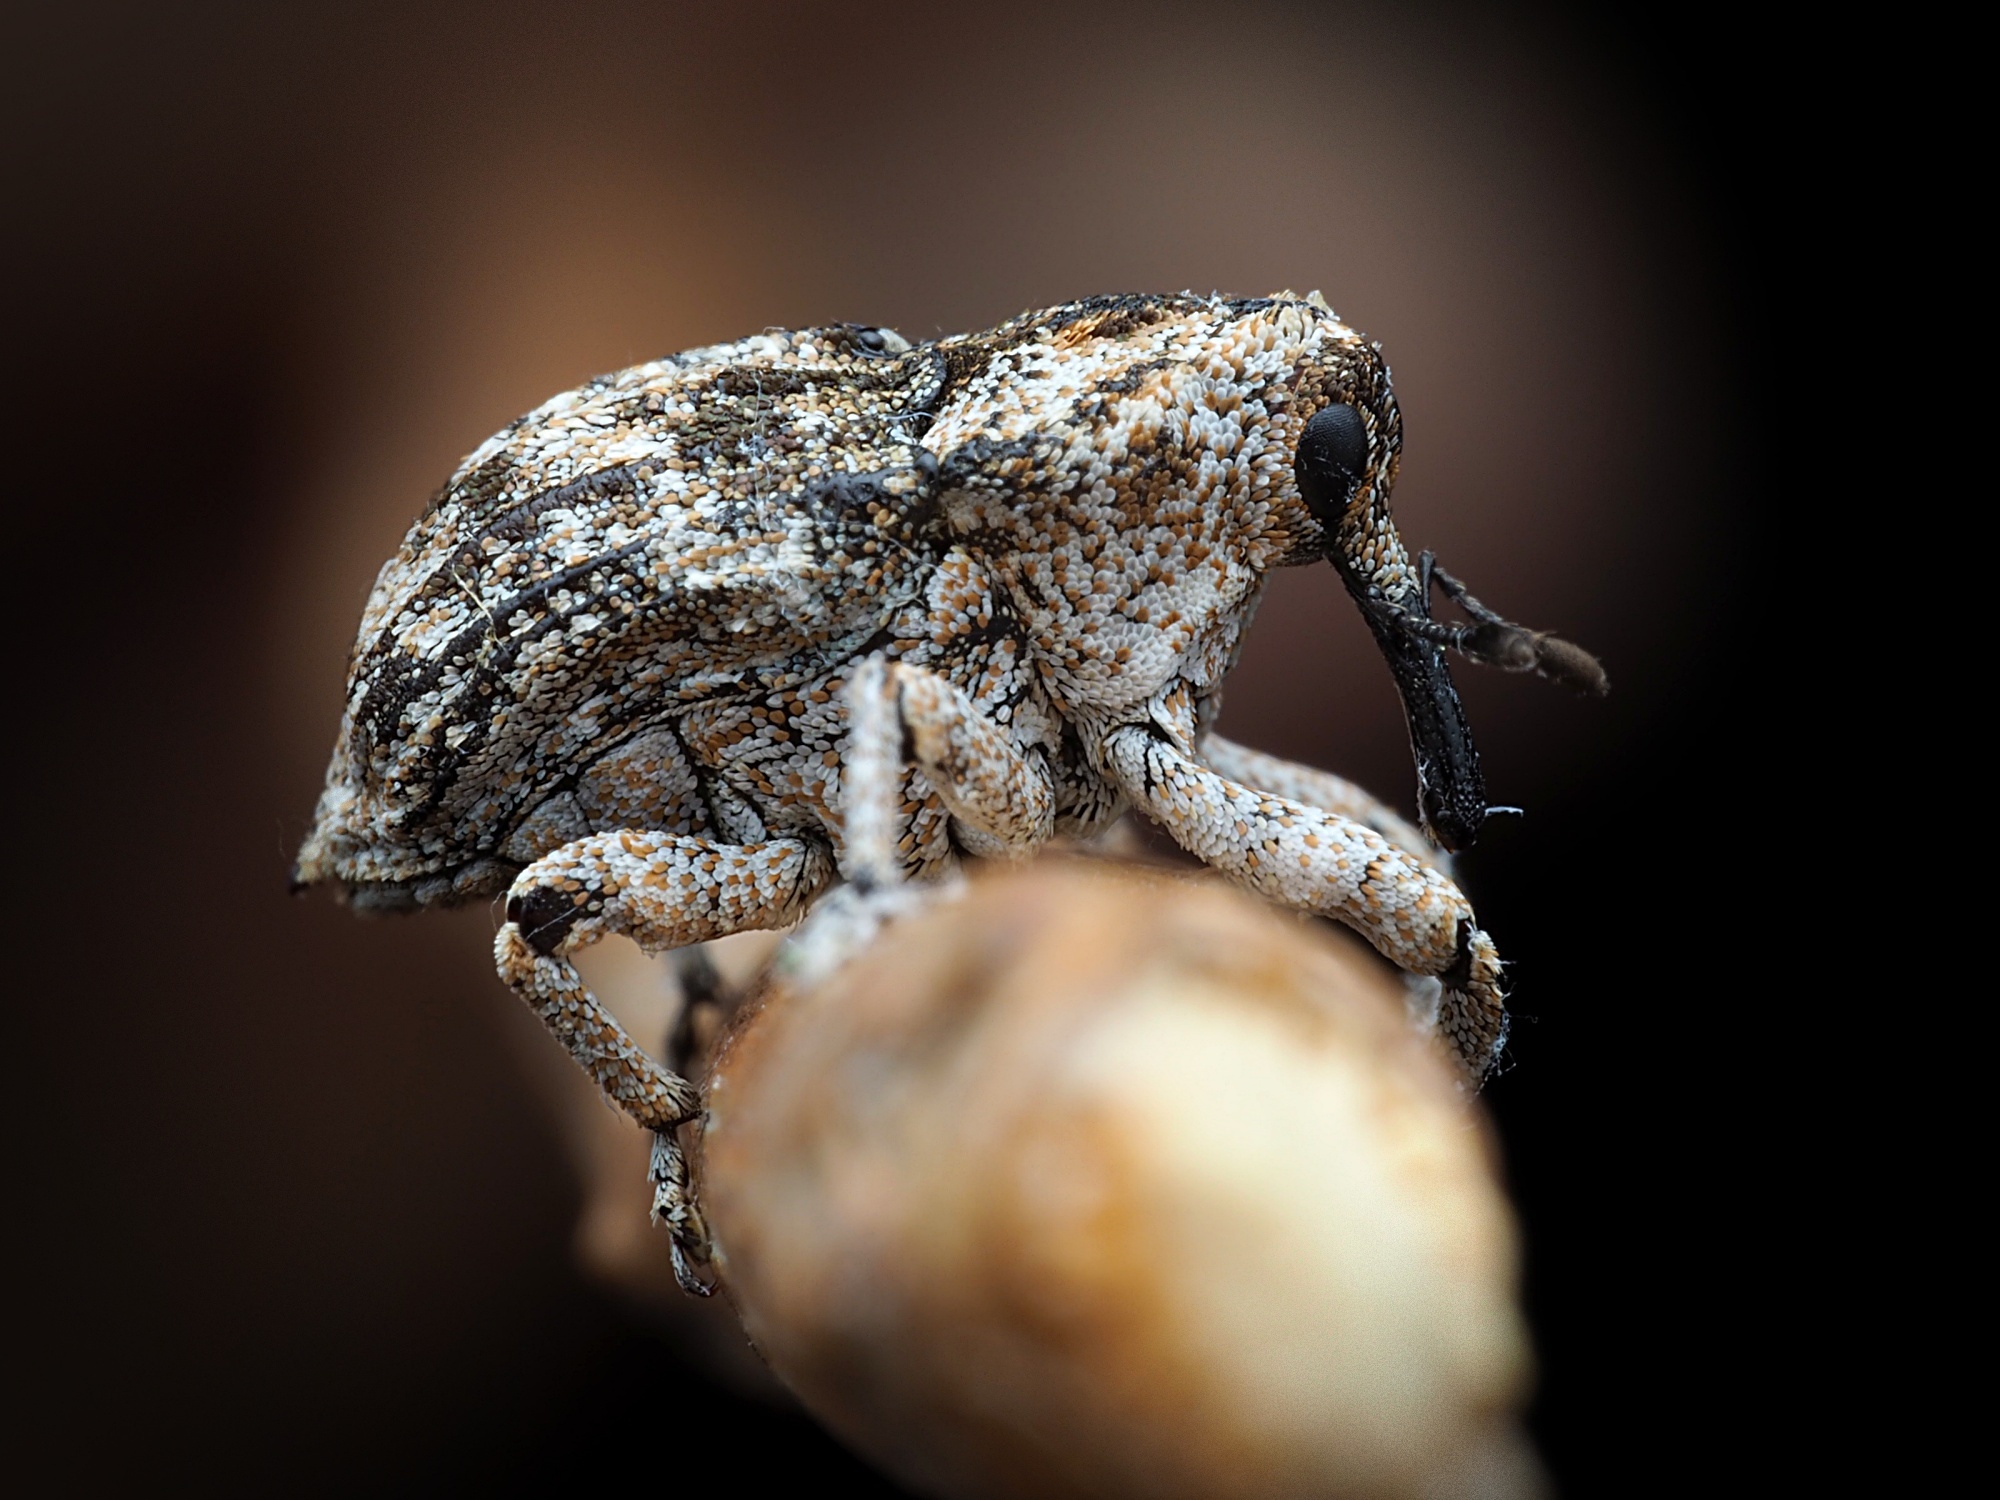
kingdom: Animalia
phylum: Arthropoda
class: Insecta
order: Coleoptera
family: Curculionidae
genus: Euthyrhinus
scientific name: Euthyrhinus squamiger
